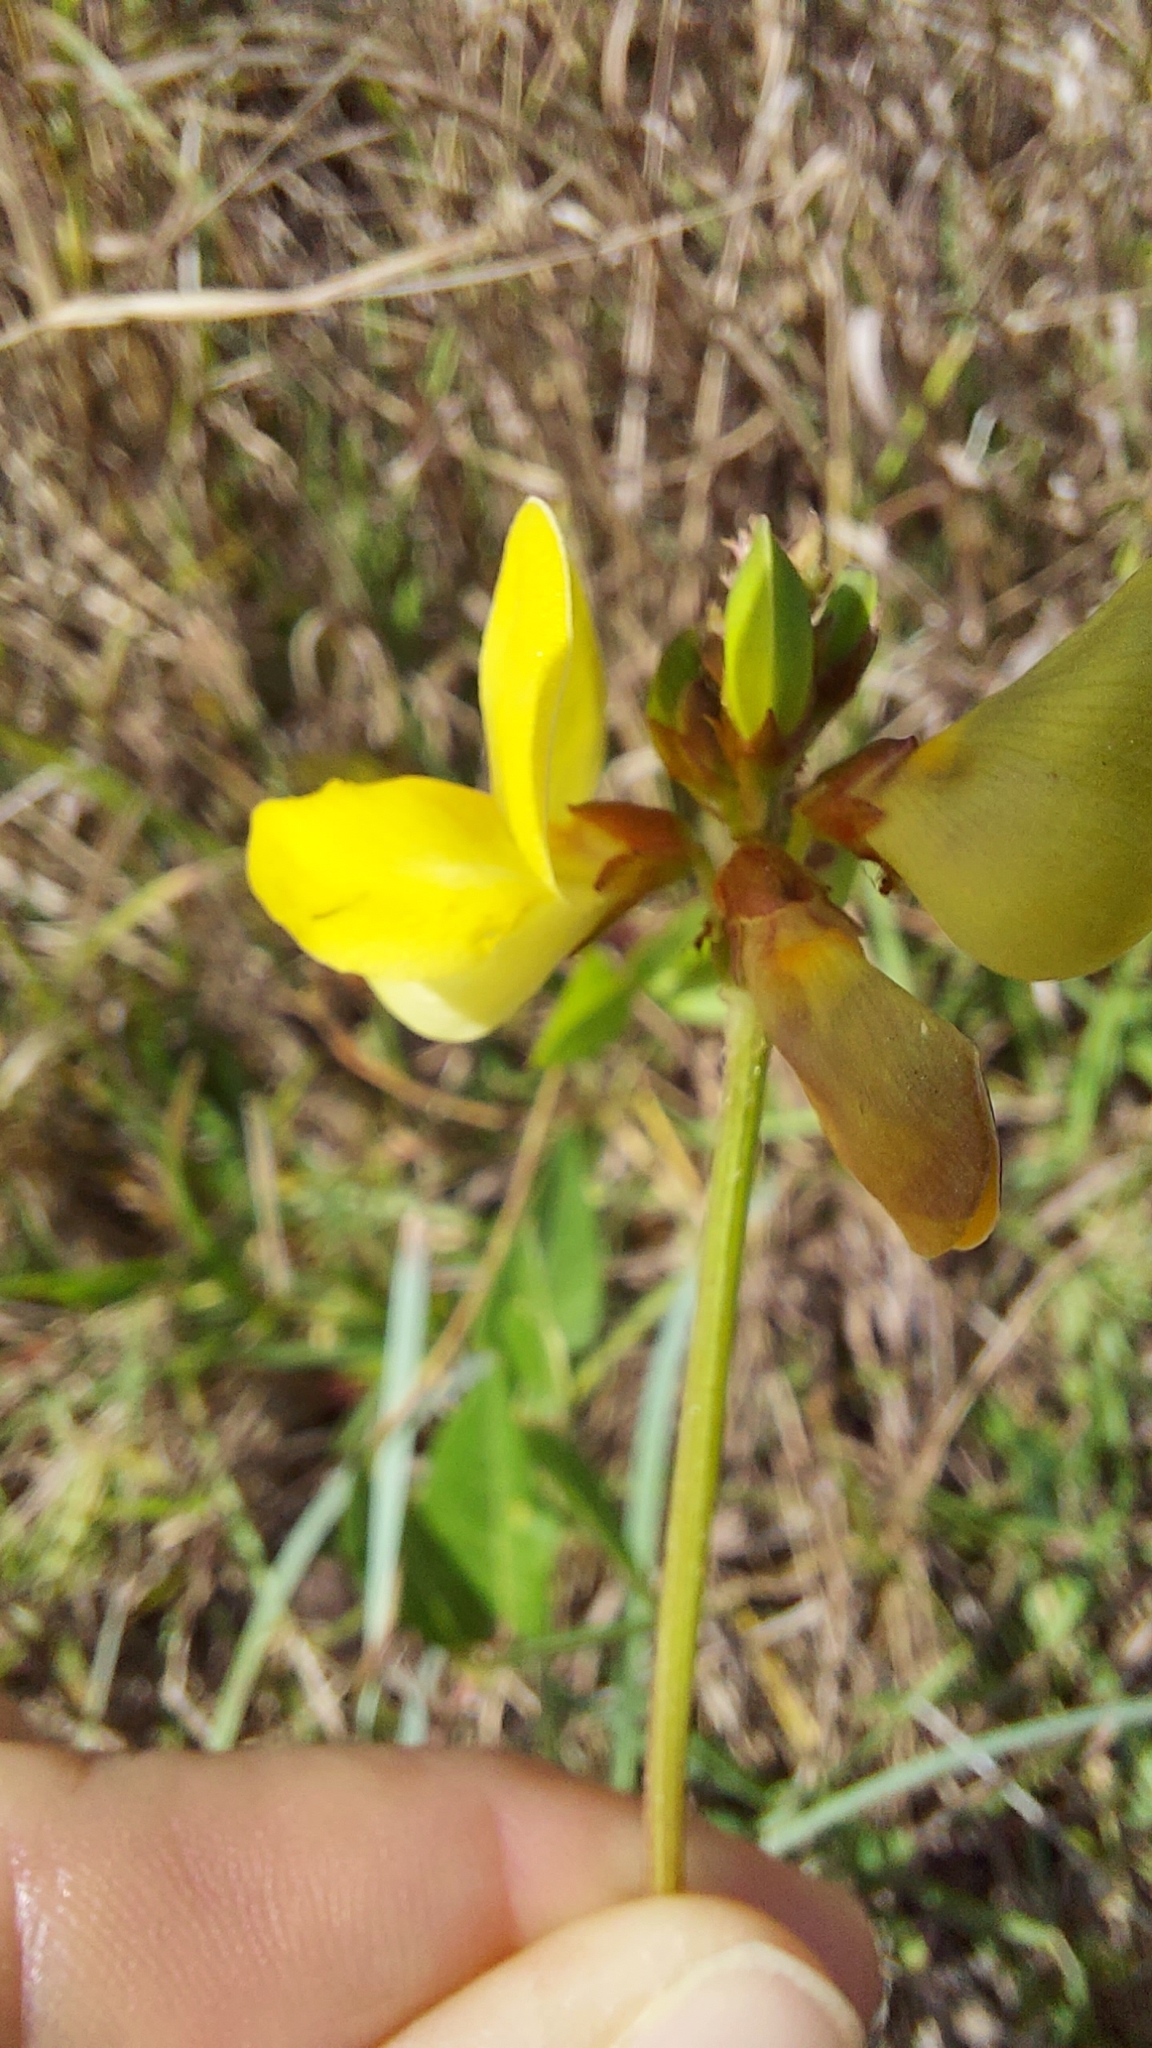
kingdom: Plantae
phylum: Tracheophyta
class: Magnoliopsida
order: Fabales
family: Fabaceae
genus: Vigna
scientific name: Vigna luteola
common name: Hairypod cowpea
